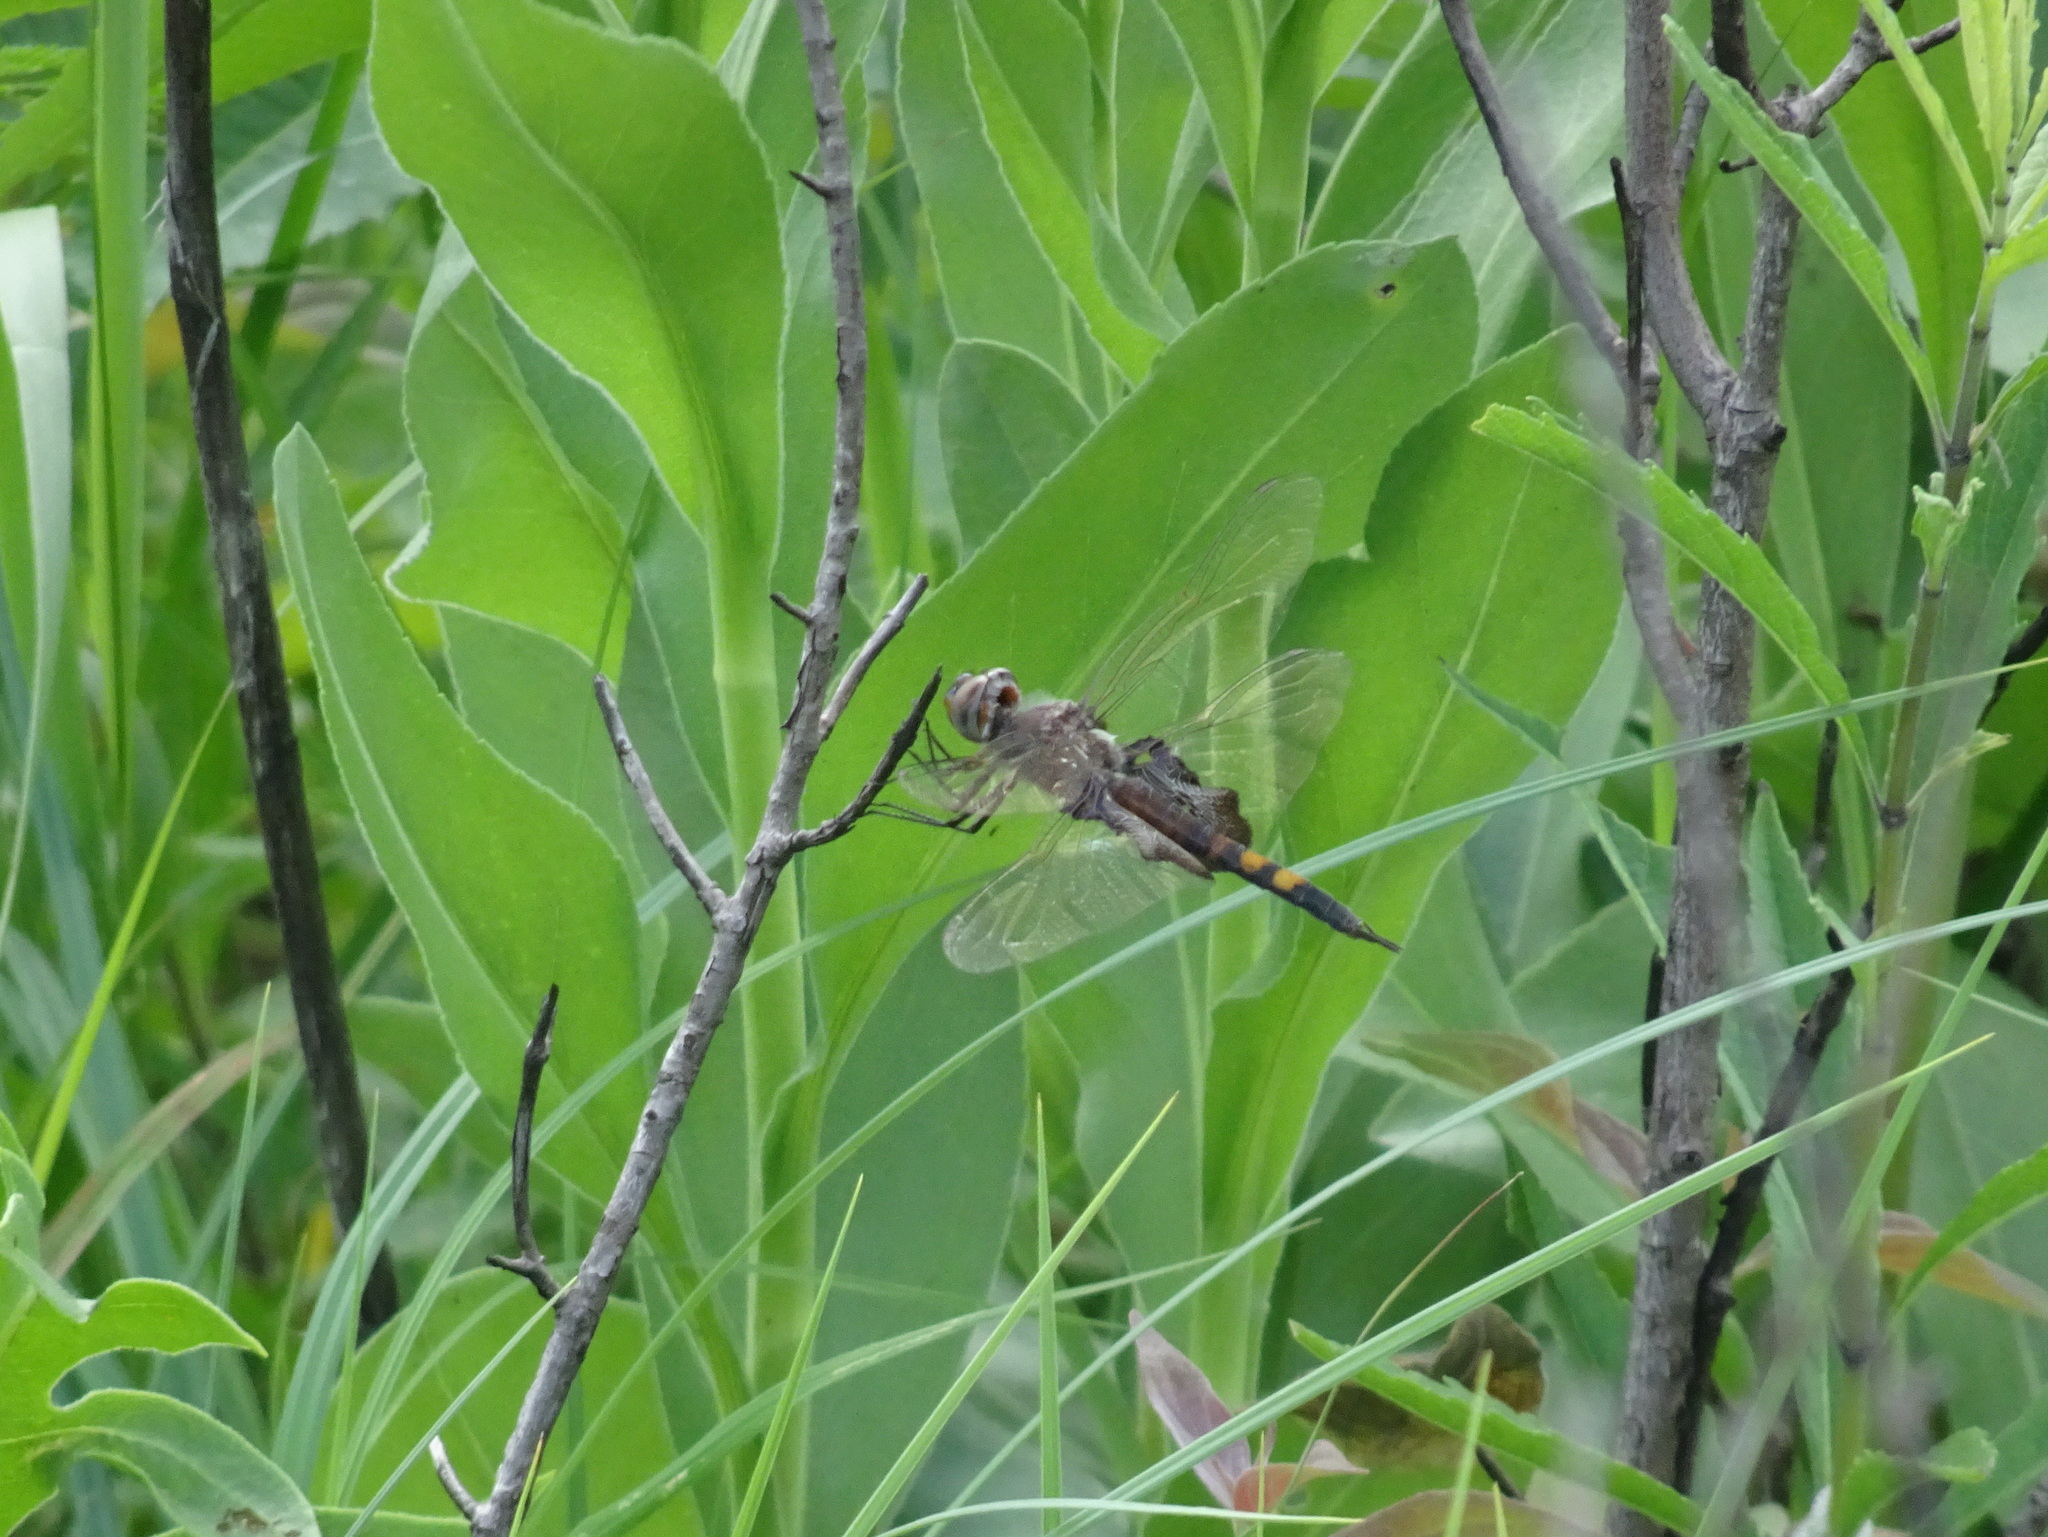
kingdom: Animalia
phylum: Arthropoda
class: Insecta
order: Odonata
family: Libellulidae
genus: Tramea
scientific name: Tramea lacerata
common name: Black saddlebags
